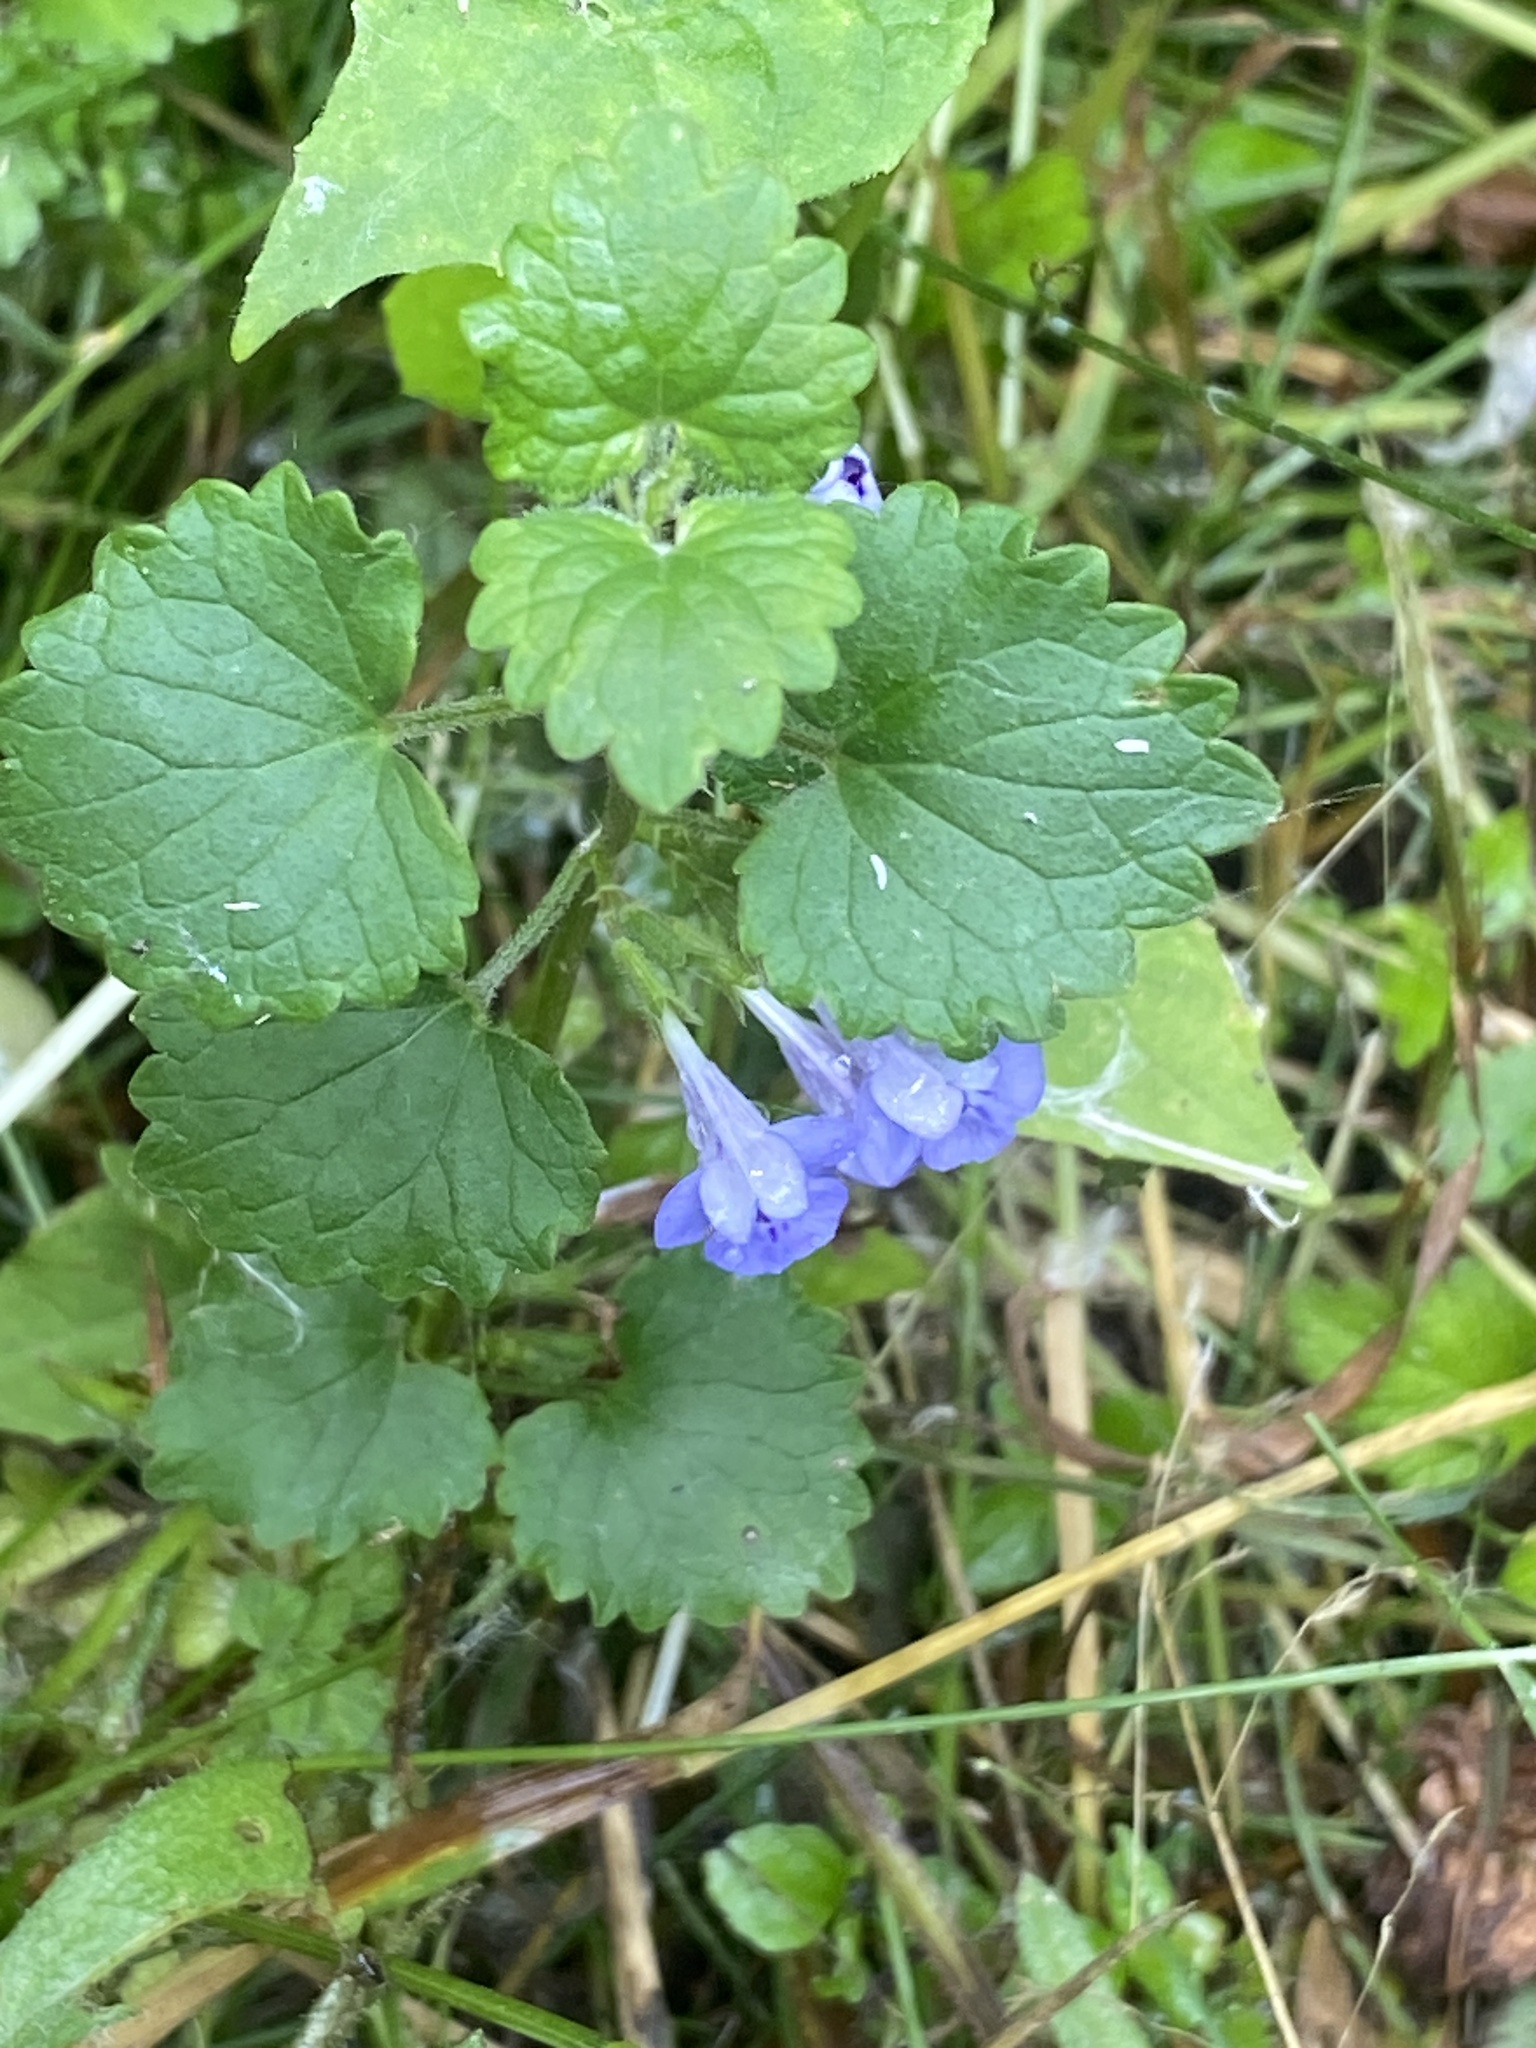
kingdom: Plantae
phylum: Tracheophyta
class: Magnoliopsida
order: Lamiales
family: Lamiaceae
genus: Glechoma
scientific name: Glechoma hederacea
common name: Ground ivy
